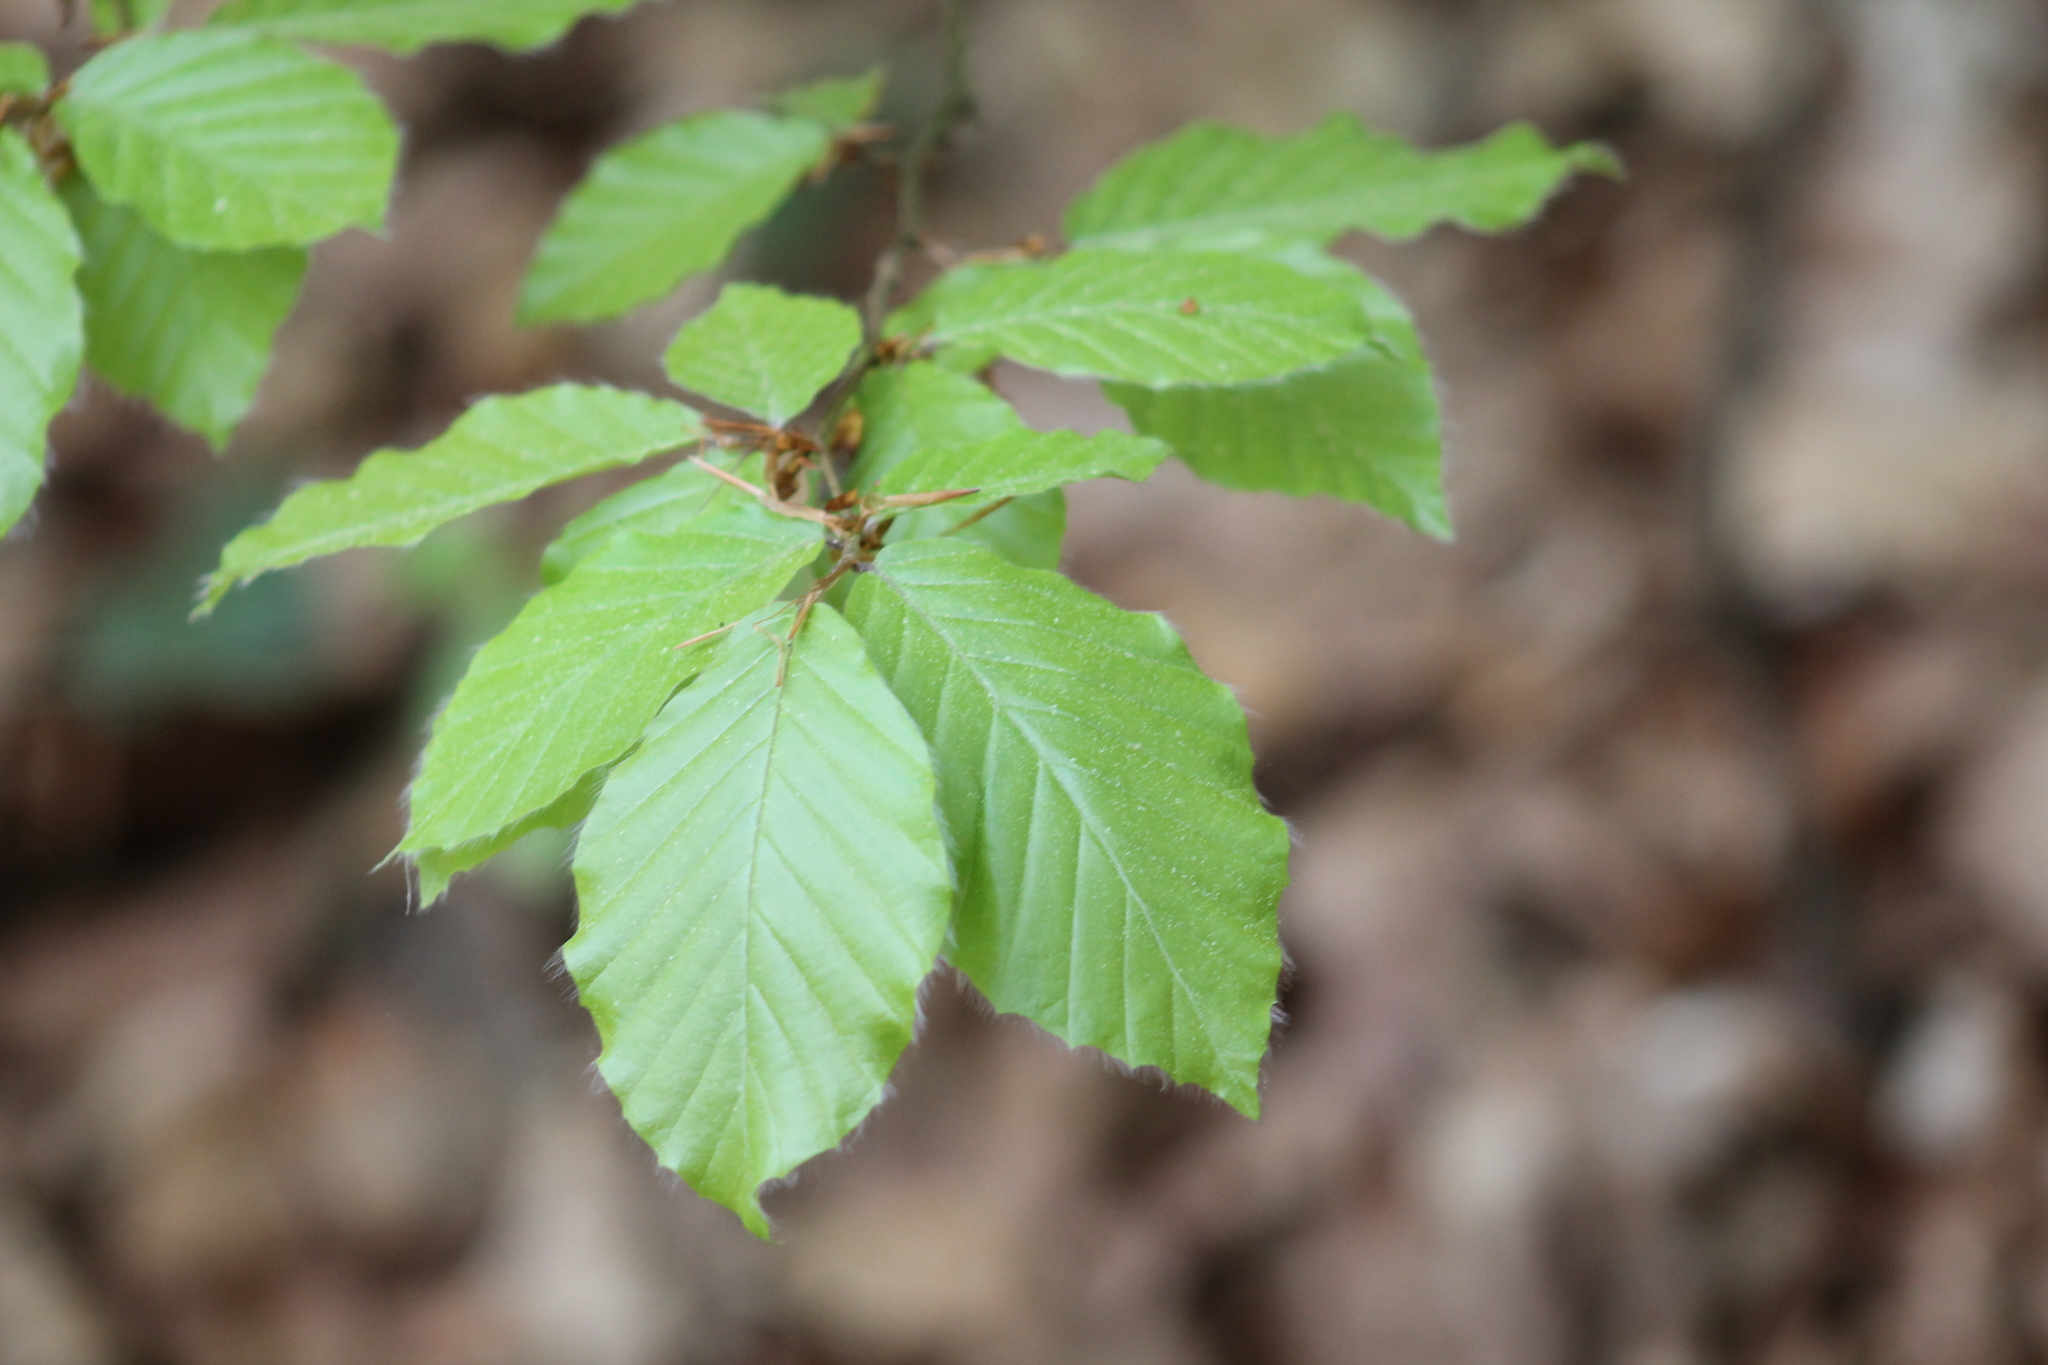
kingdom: Plantae
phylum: Tracheophyta
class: Magnoliopsida
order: Fagales
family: Fagaceae
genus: Fagus
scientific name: Fagus sylvatica
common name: Beech
